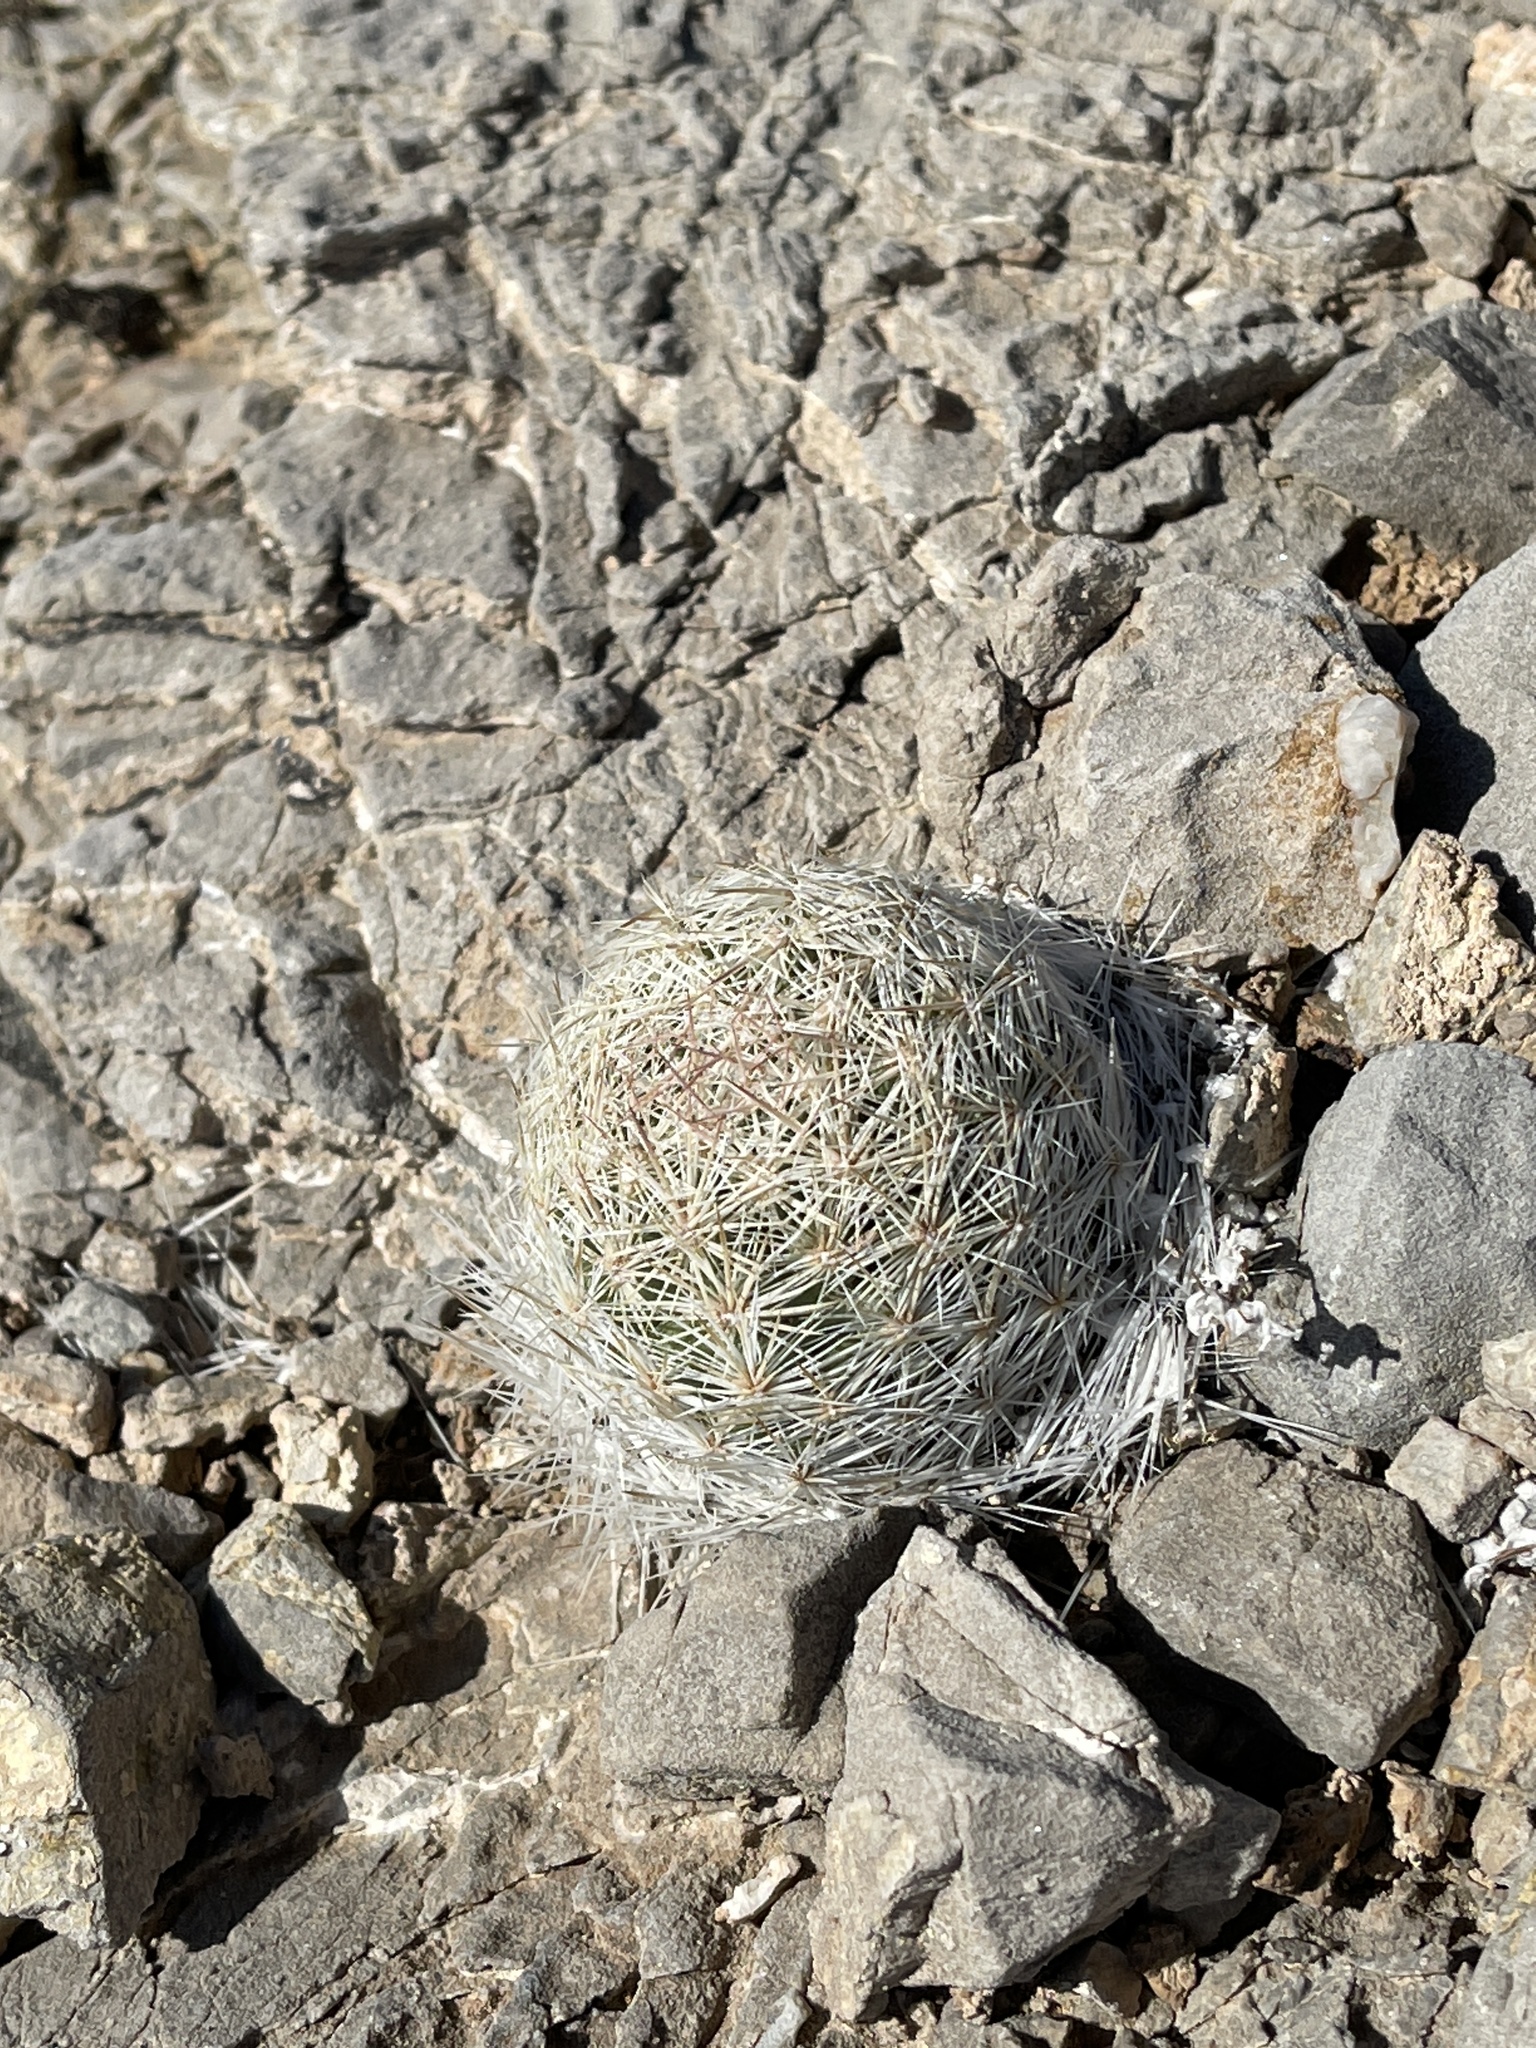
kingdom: Plantae
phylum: Tracheophyta
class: Magnoliopsida
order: Caryophyllales
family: Cactaceae
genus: Pelecyphora
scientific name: Pelecyphora dasyacantha
